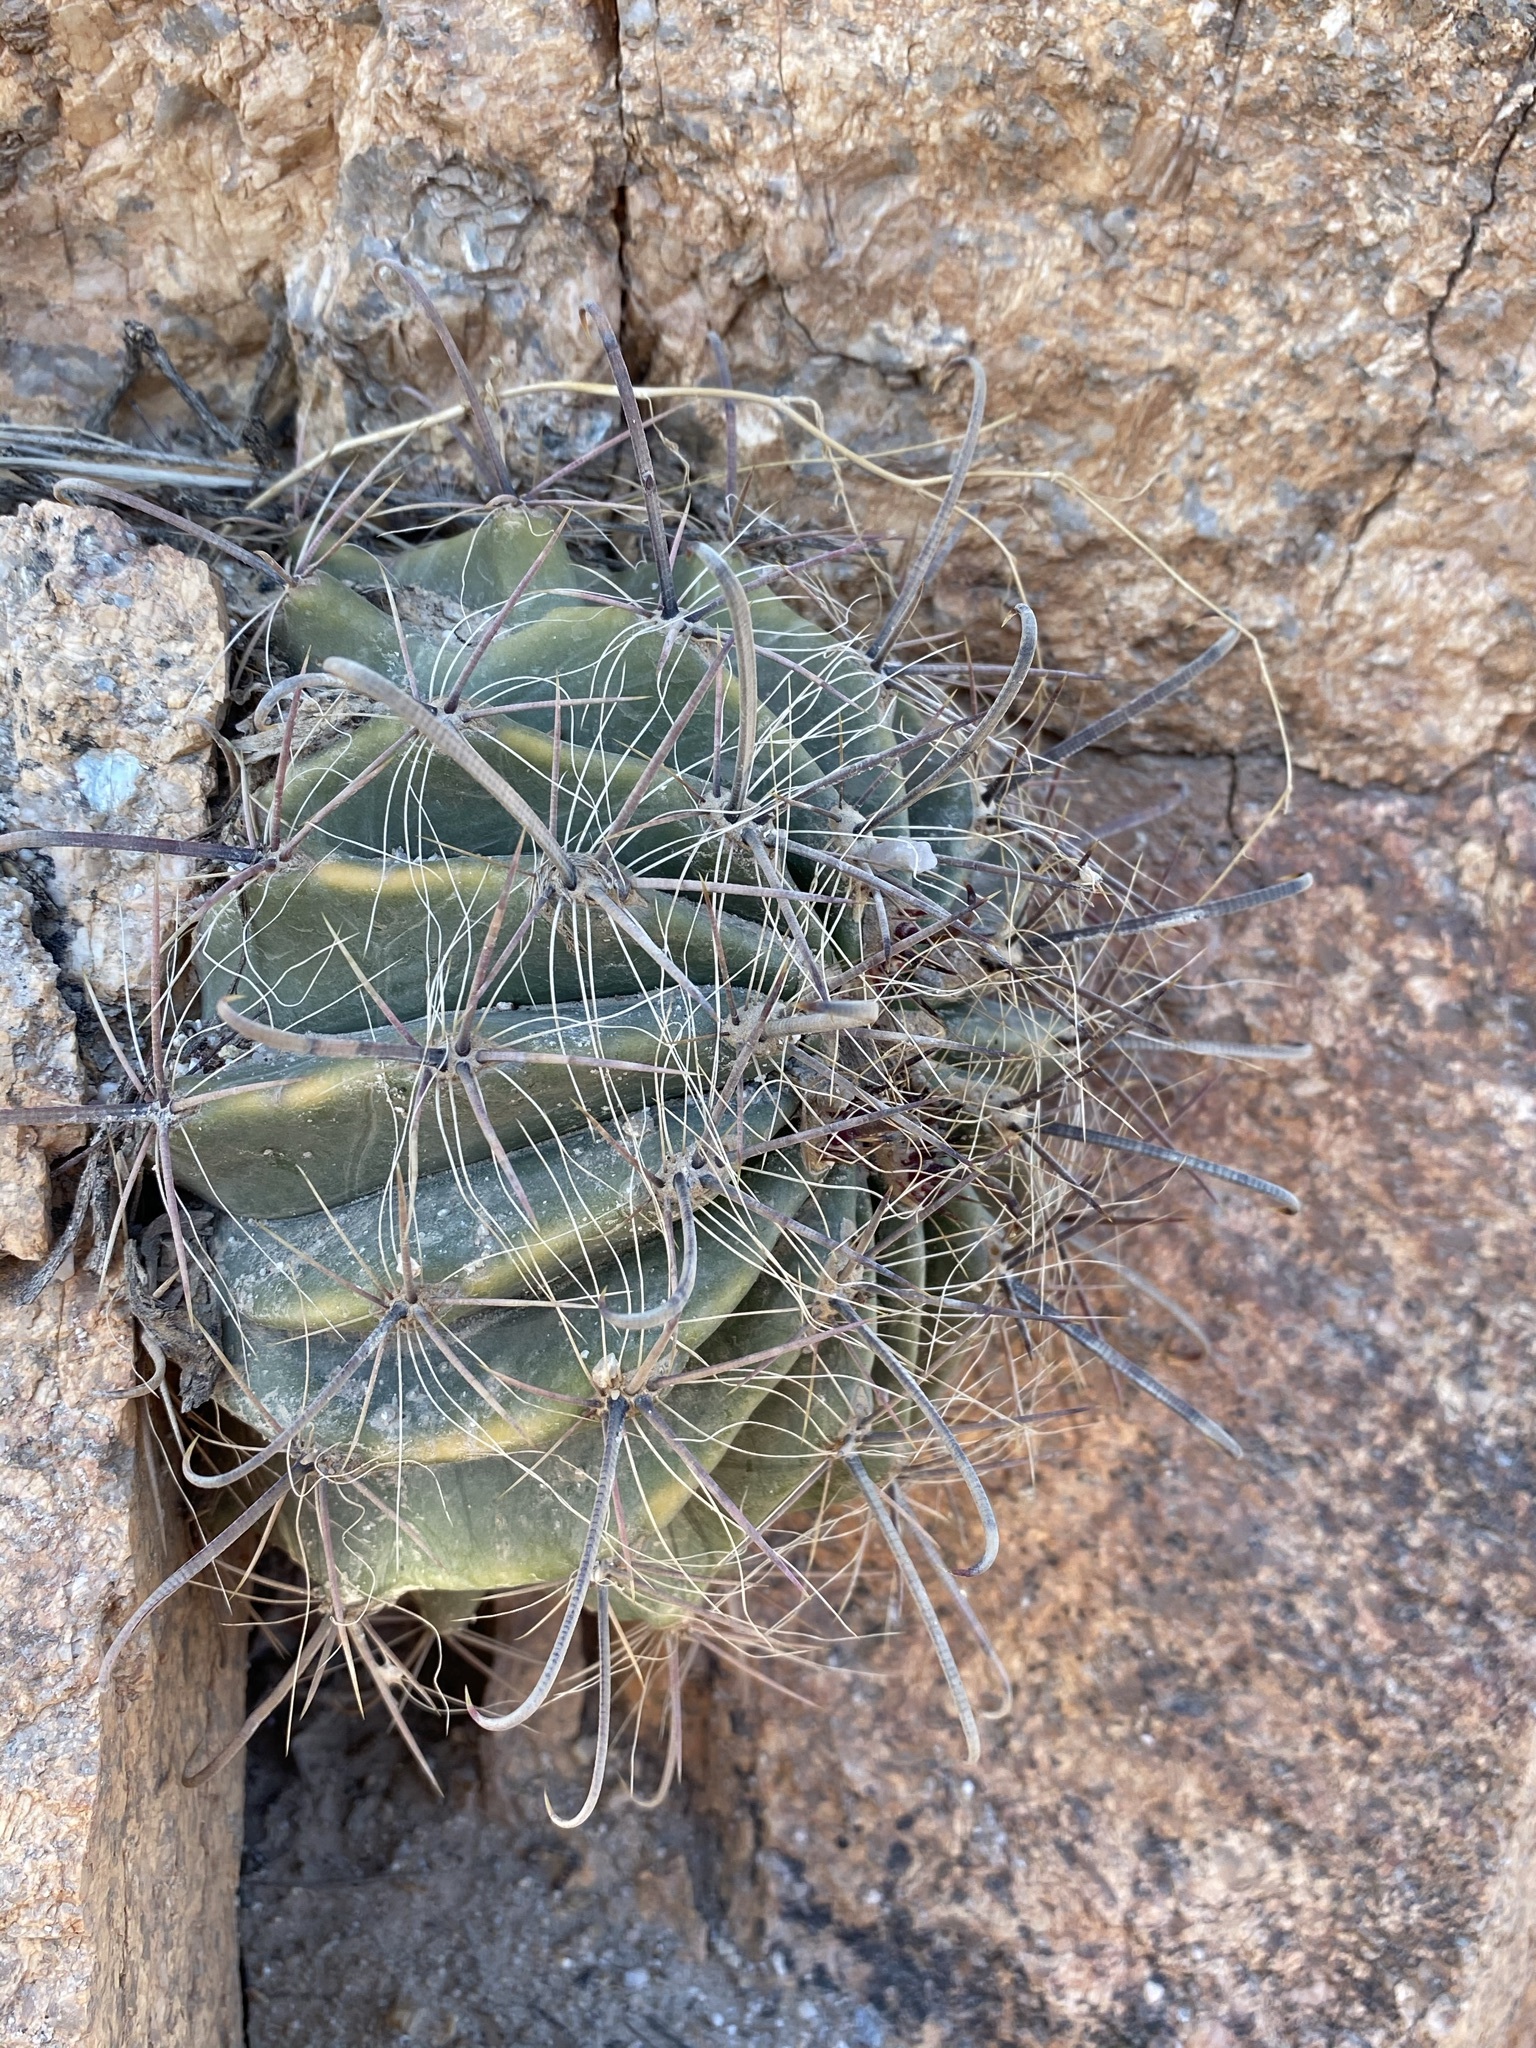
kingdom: Plantae
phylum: Tracheophyta
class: Magnoliopsida
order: Caryophyllales
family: Cactaceae
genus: Ferocactus
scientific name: Ferocactus wislizeni
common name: Candy barrel cactus
